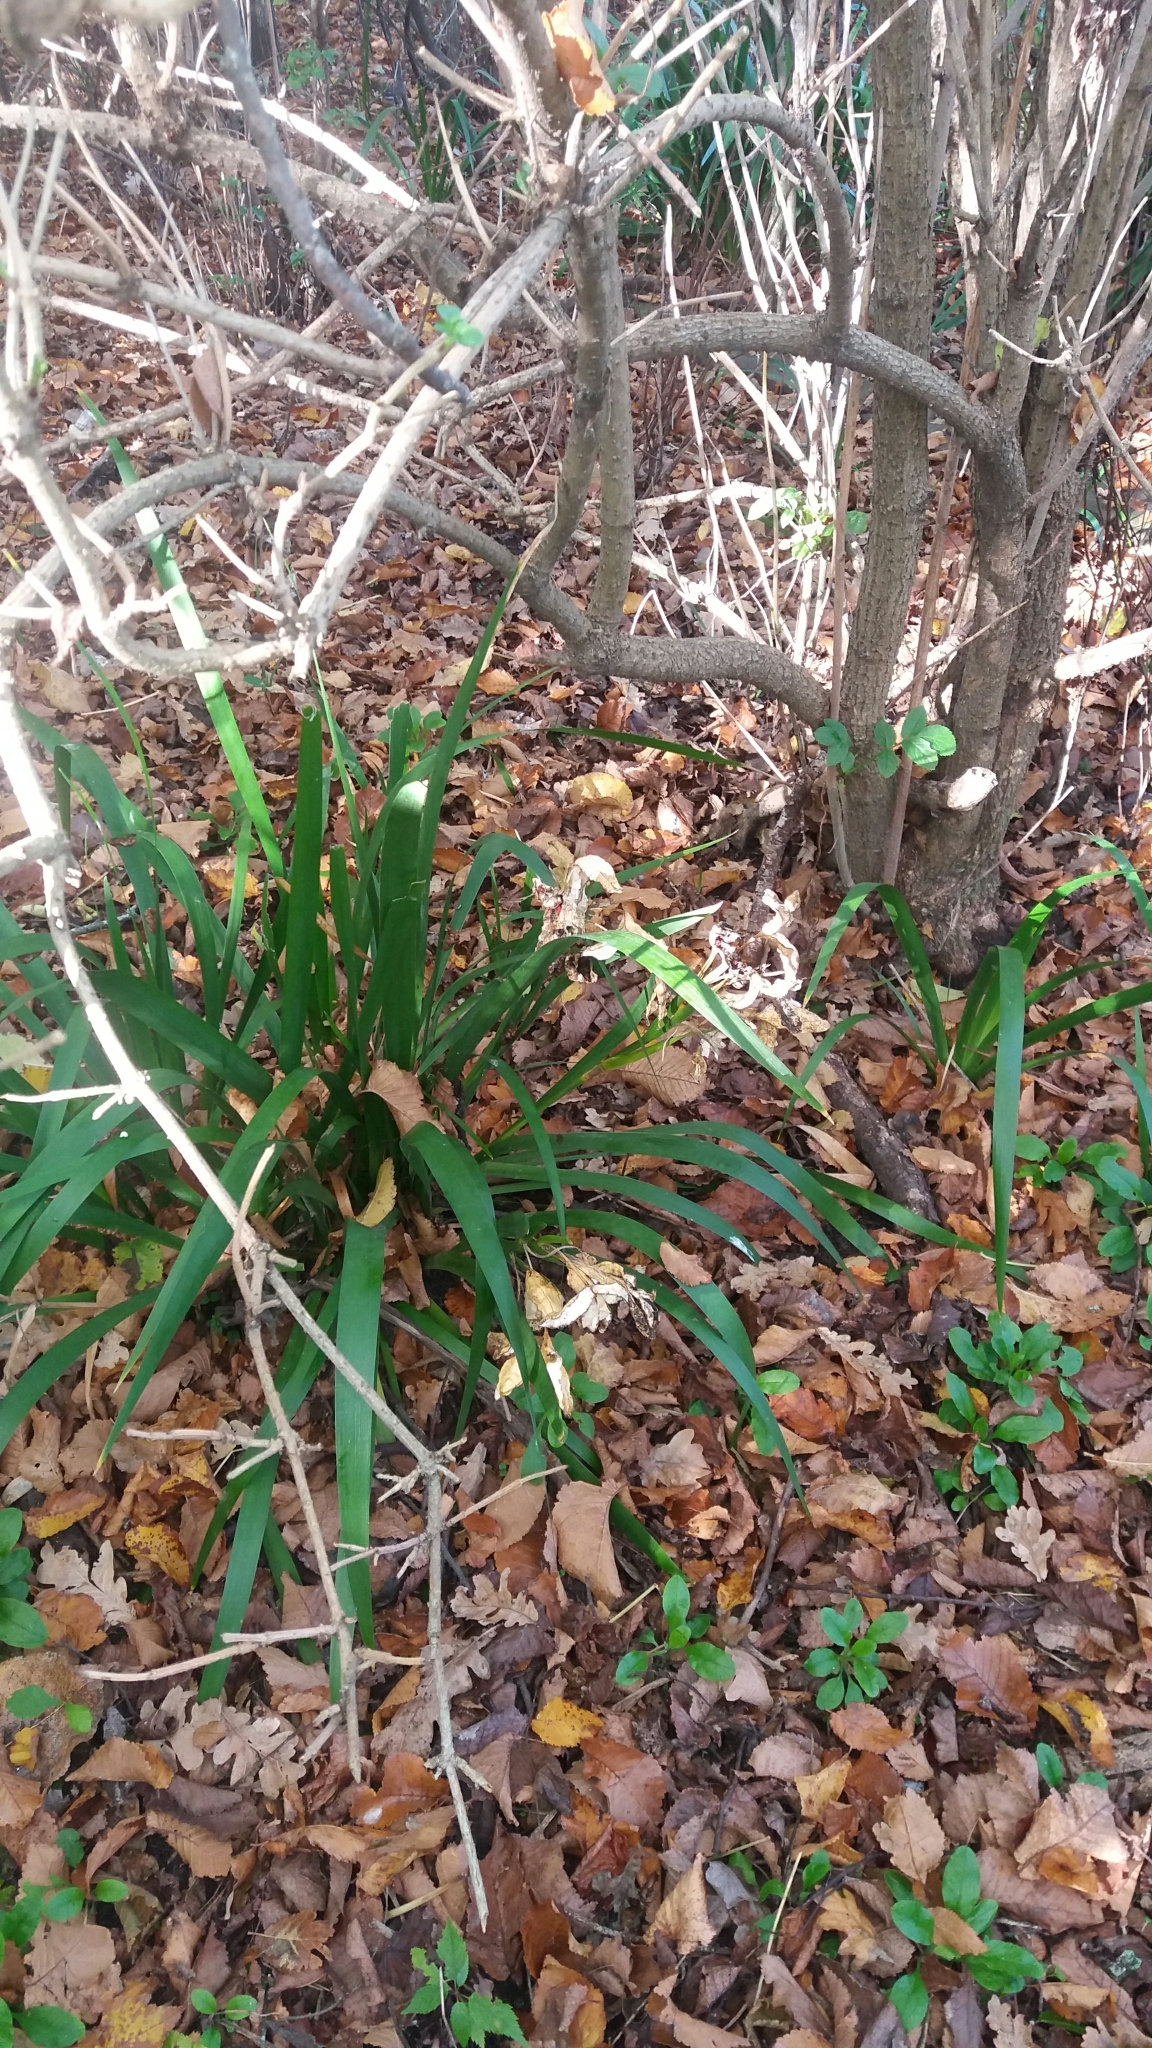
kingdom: Plantae
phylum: Tracheophyta
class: Liliopsida
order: Asparagales
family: Iridaceae
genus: Iris
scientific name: Iris foetidissima
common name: Stinking iris
